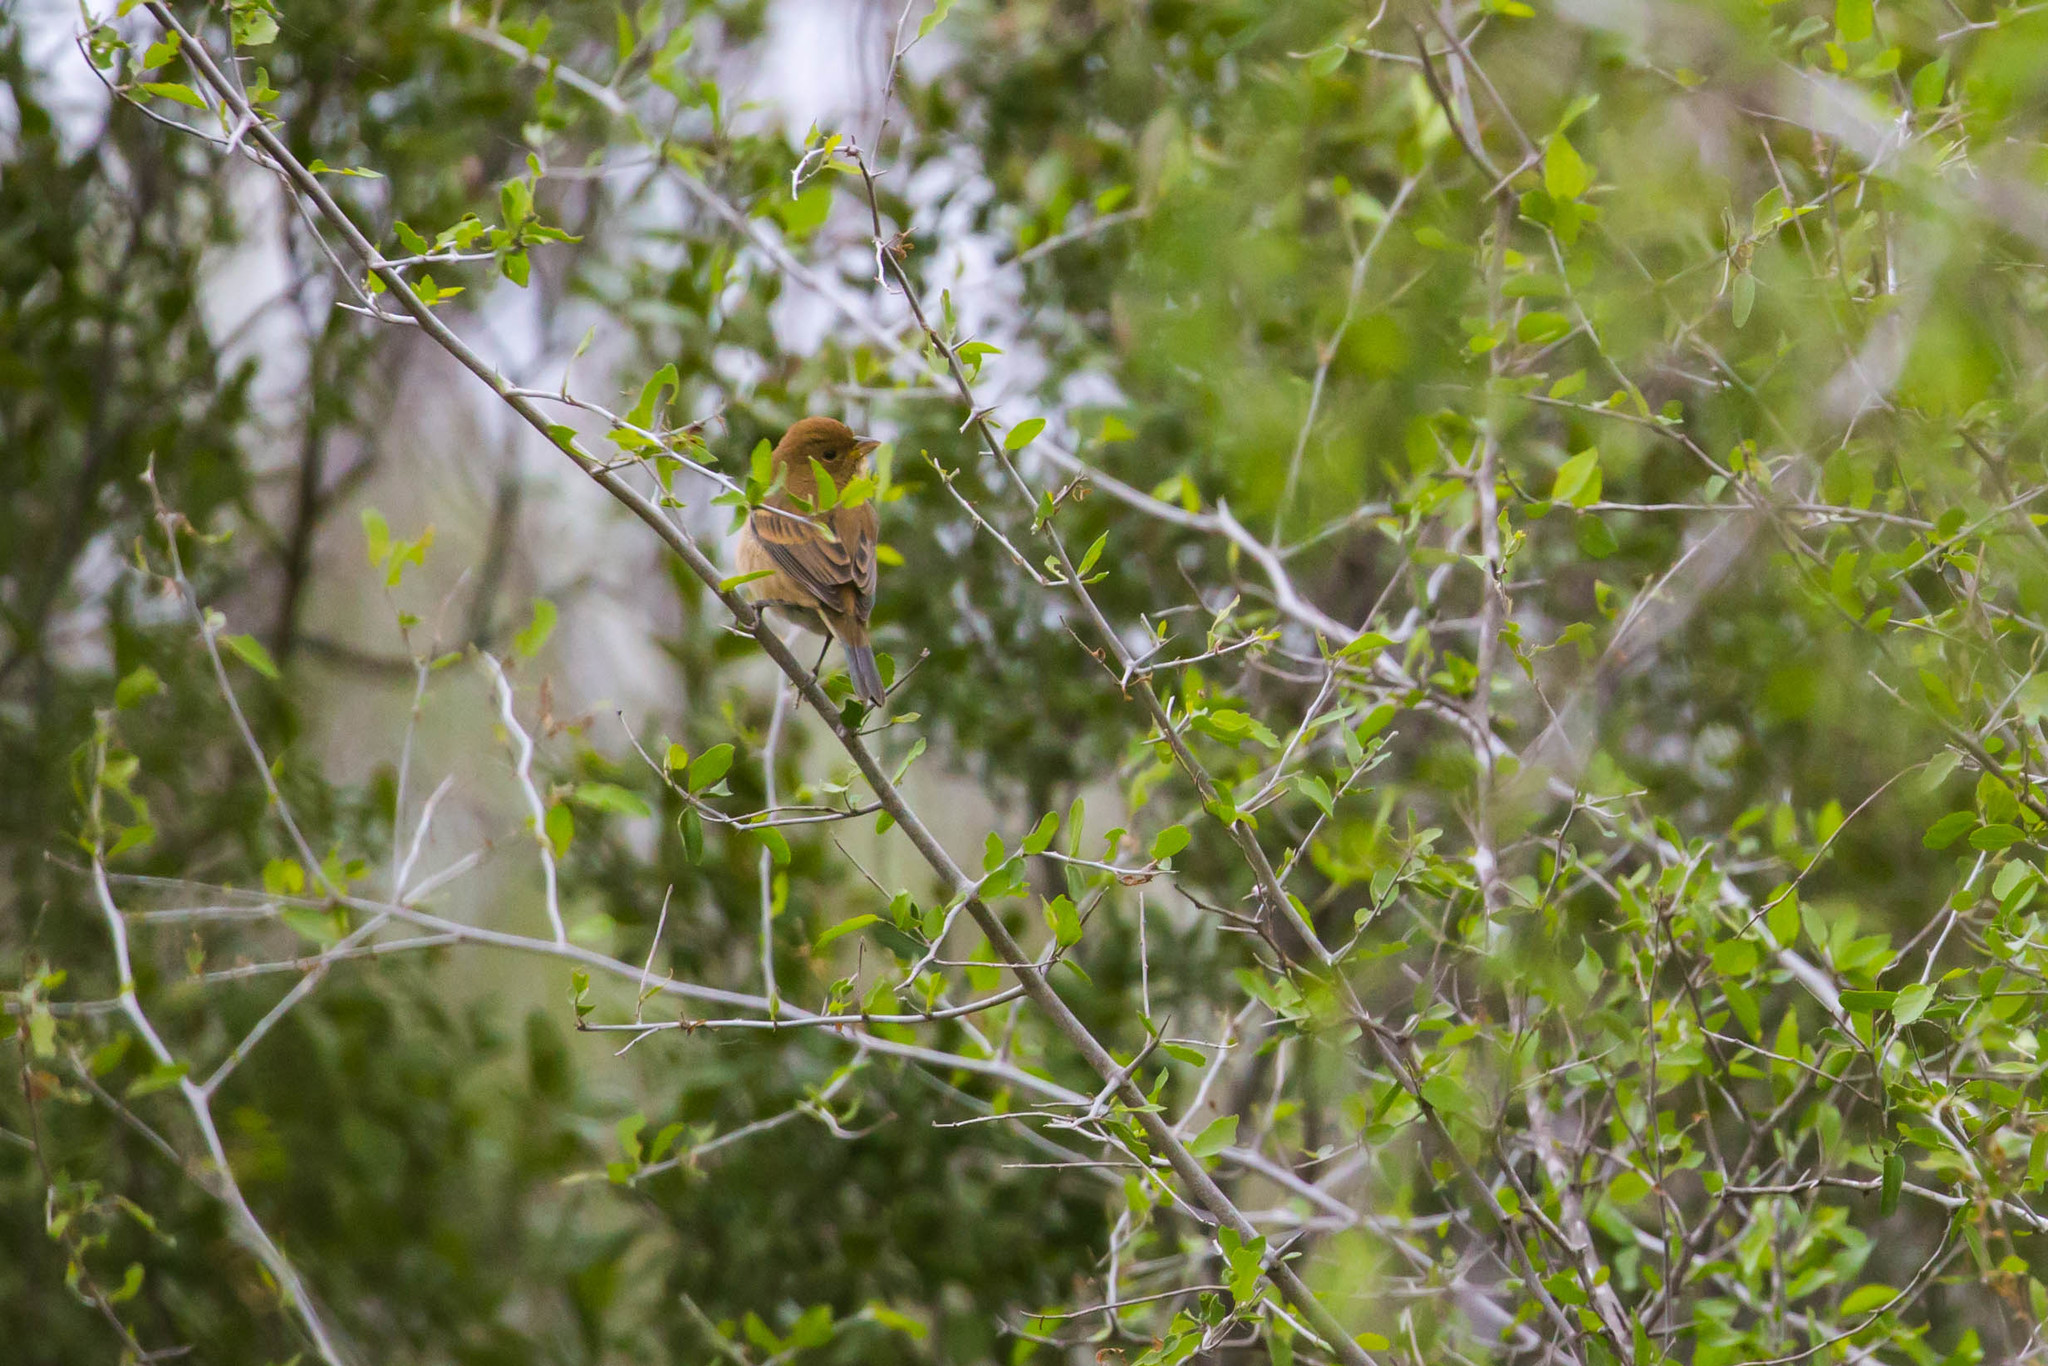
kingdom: Animalia
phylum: Chordata
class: Aves
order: Passeriformes
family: Cardinalidae
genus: Passerina
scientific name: Passerina cyanea
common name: Indigo bunting
